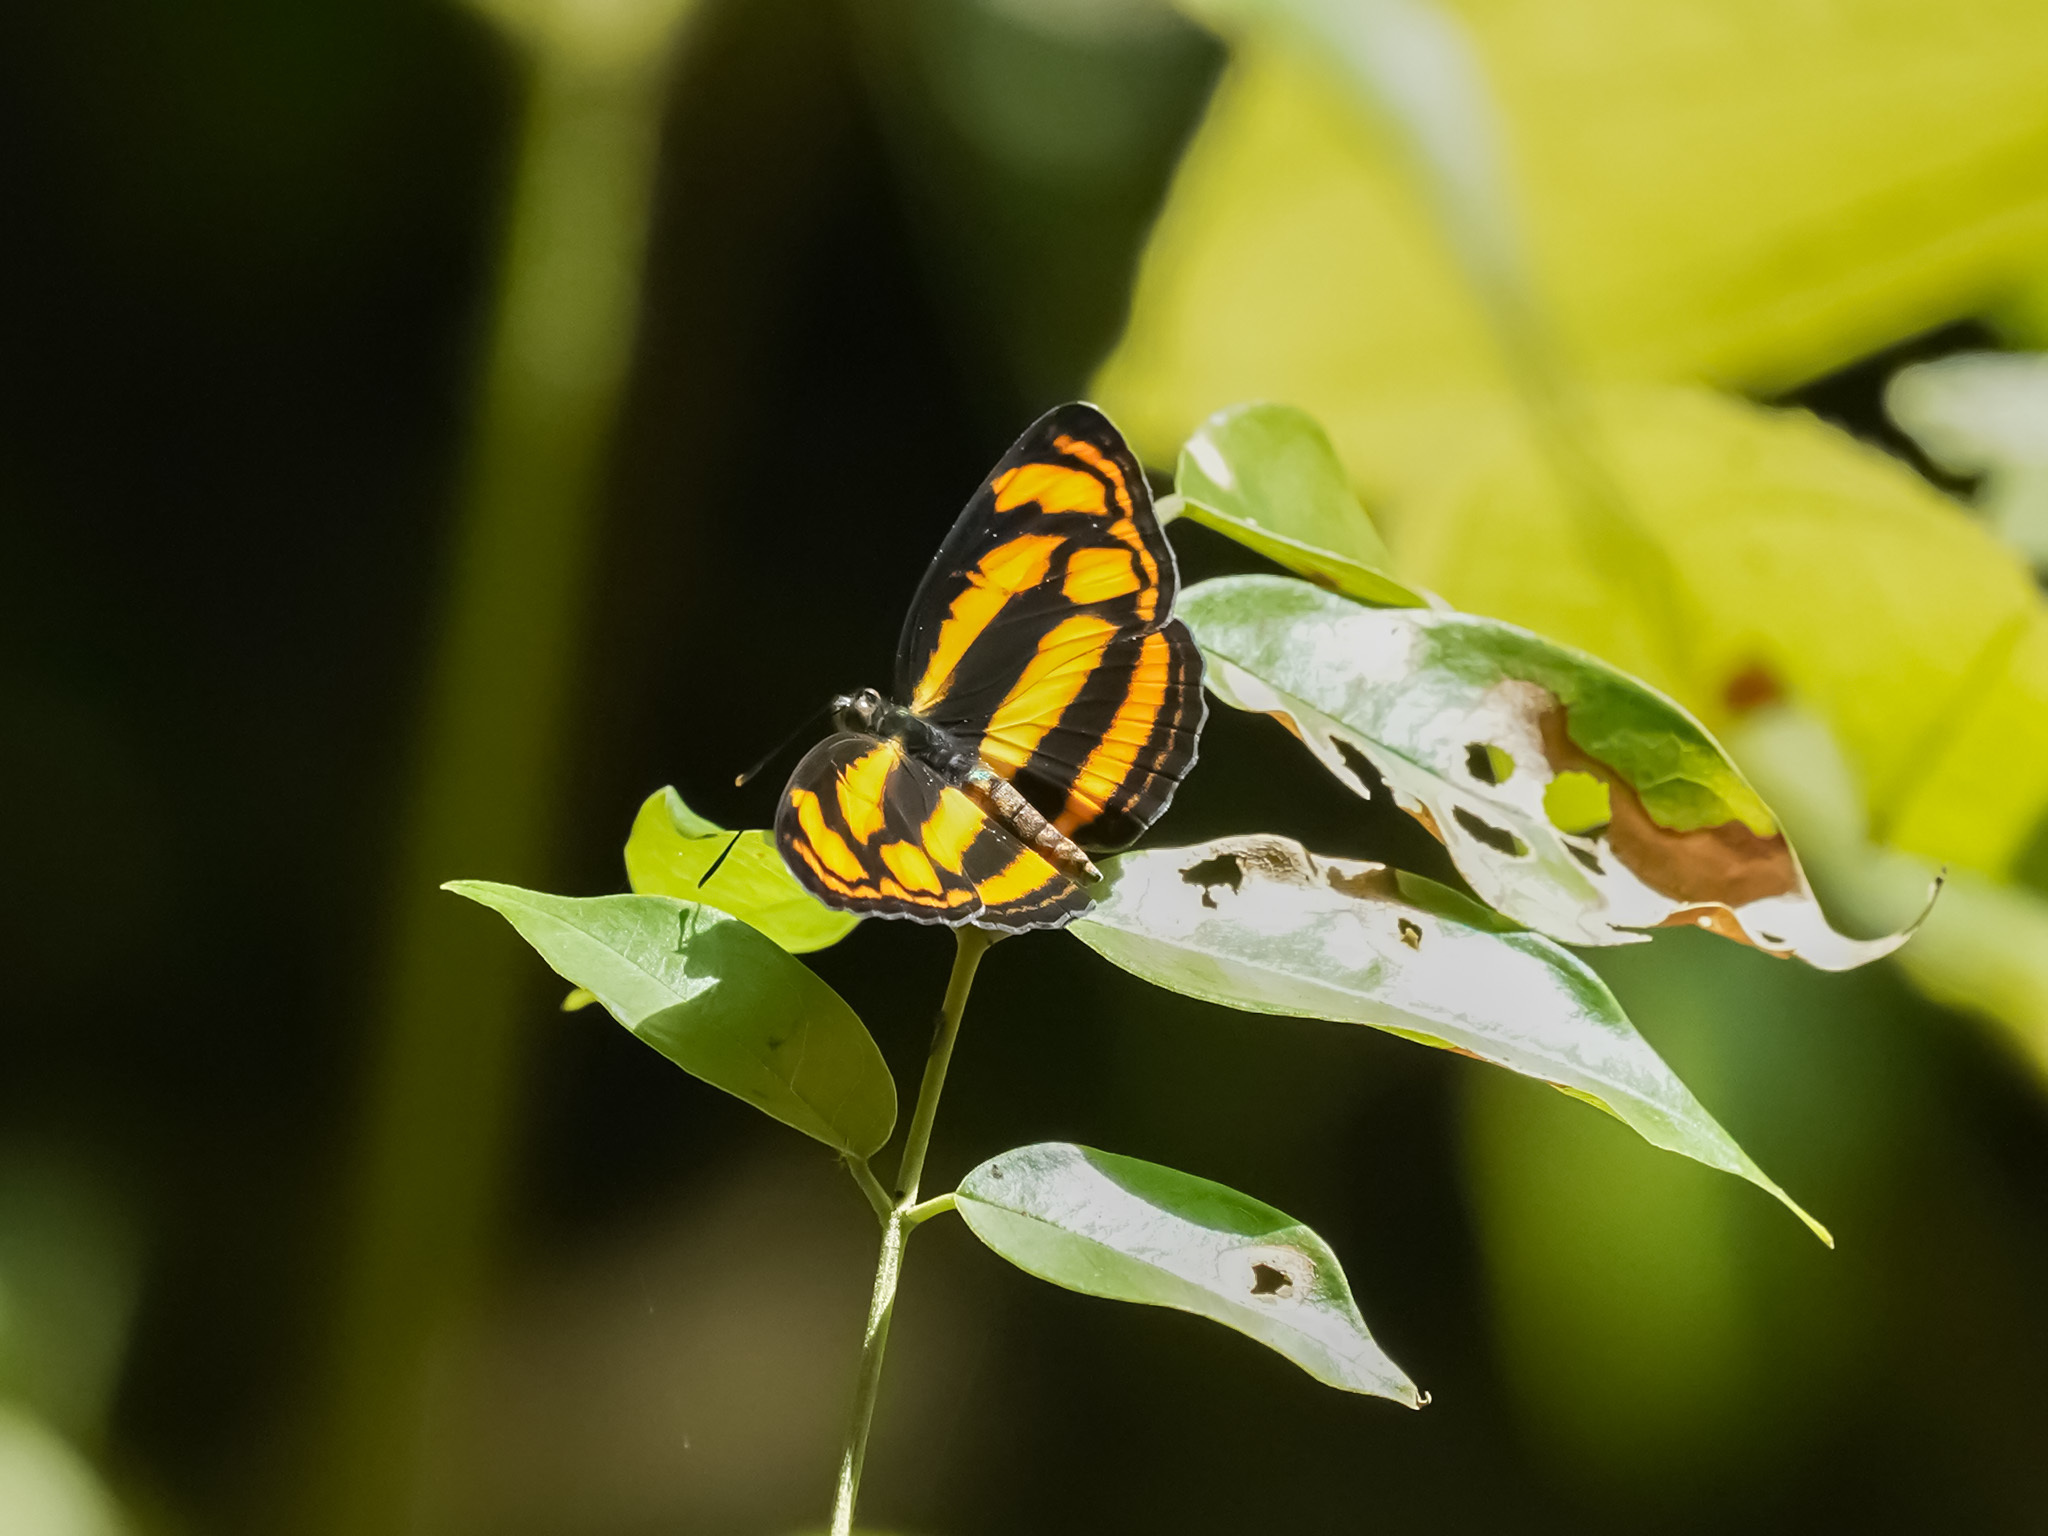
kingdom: Animalia
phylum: Arthropoda
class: Insecta
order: Lepidoptera
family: Nymphalidae
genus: Lasippa
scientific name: Lasippa tiga
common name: Malayan lascar
